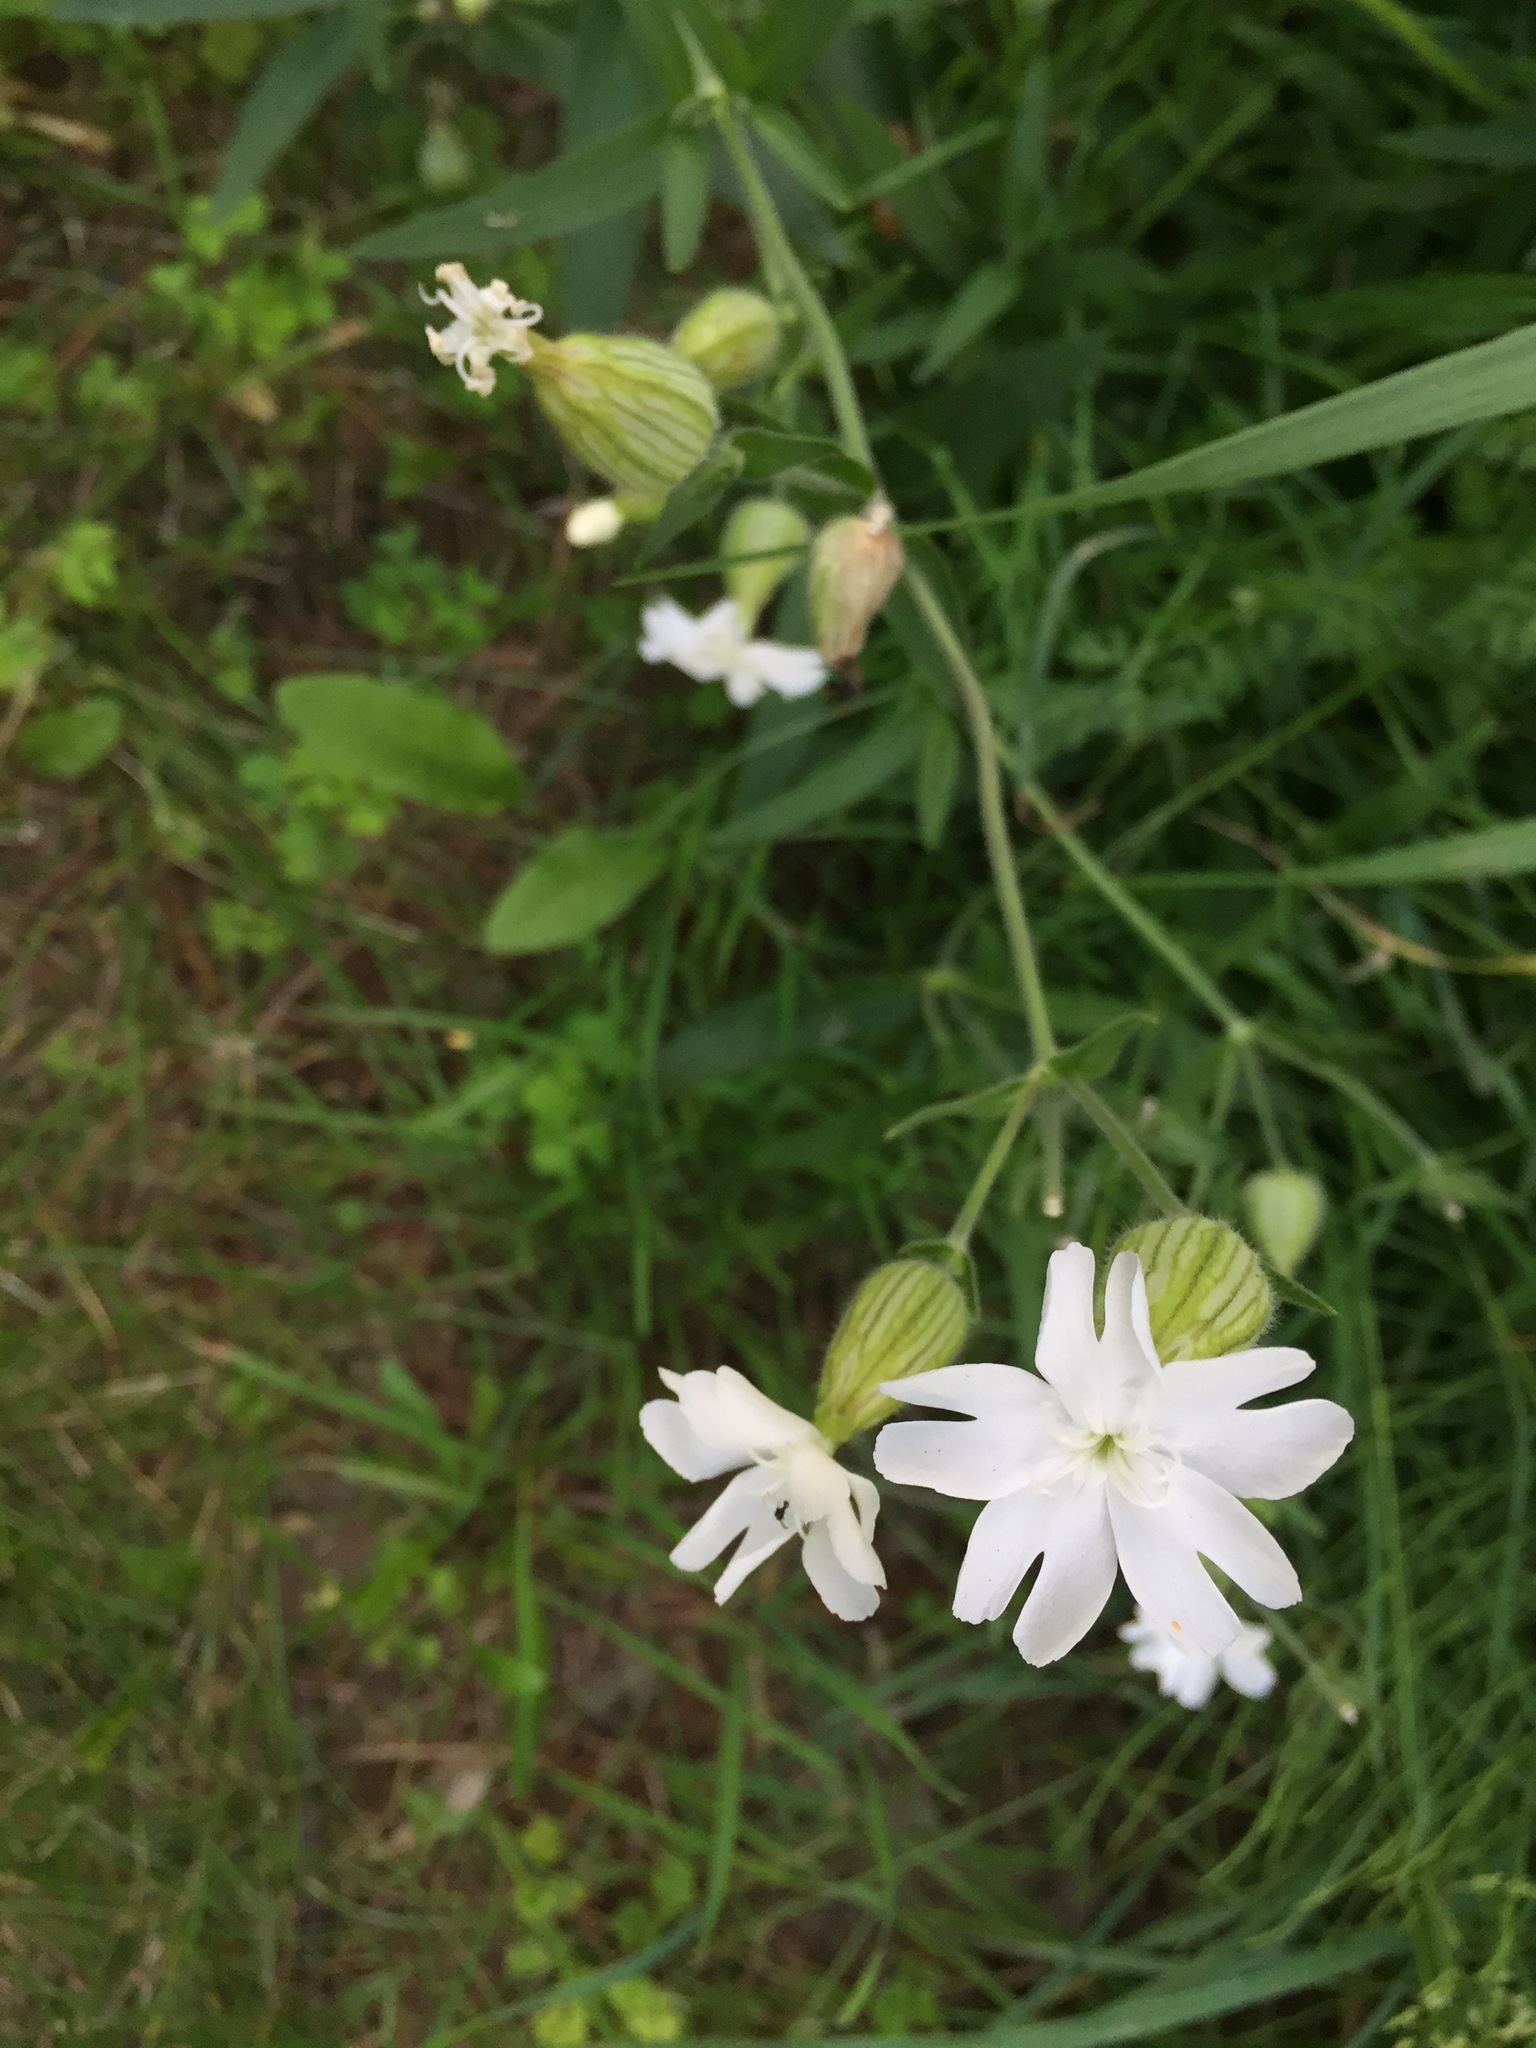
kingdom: Plantae
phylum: Tracheophyta
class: Magnoliopsida
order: Caryophyllales
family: Caryophyllaceae
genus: Silene
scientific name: Silene latifolia
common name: White campion
